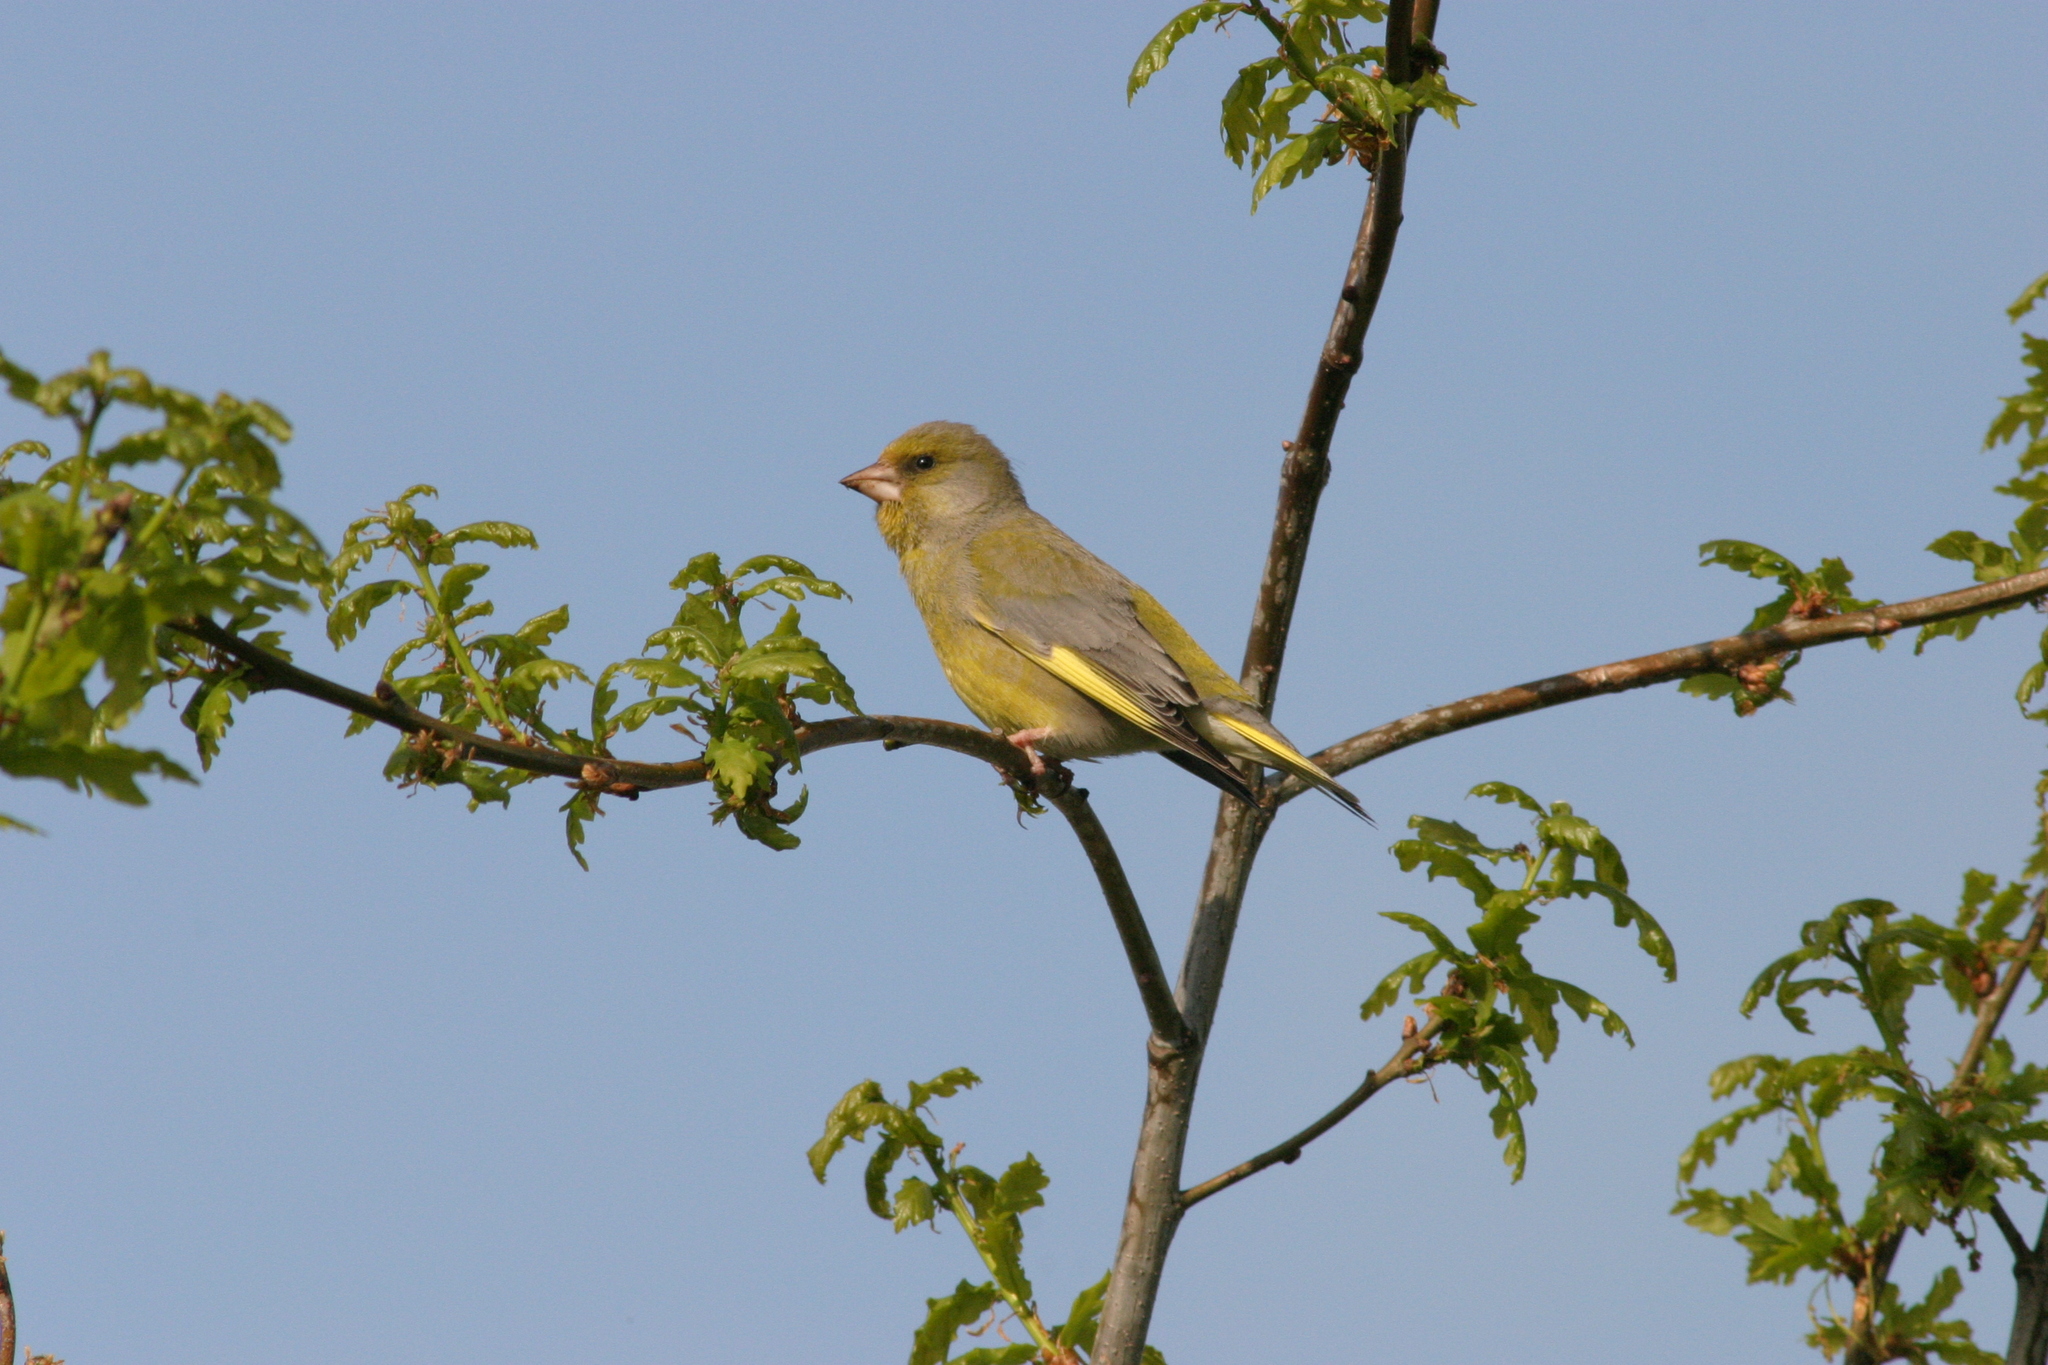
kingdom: Plantae
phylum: Tracheophyta
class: Liliopsida
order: Poales
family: Poaceae
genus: Chloris
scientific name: Chloris chloris
